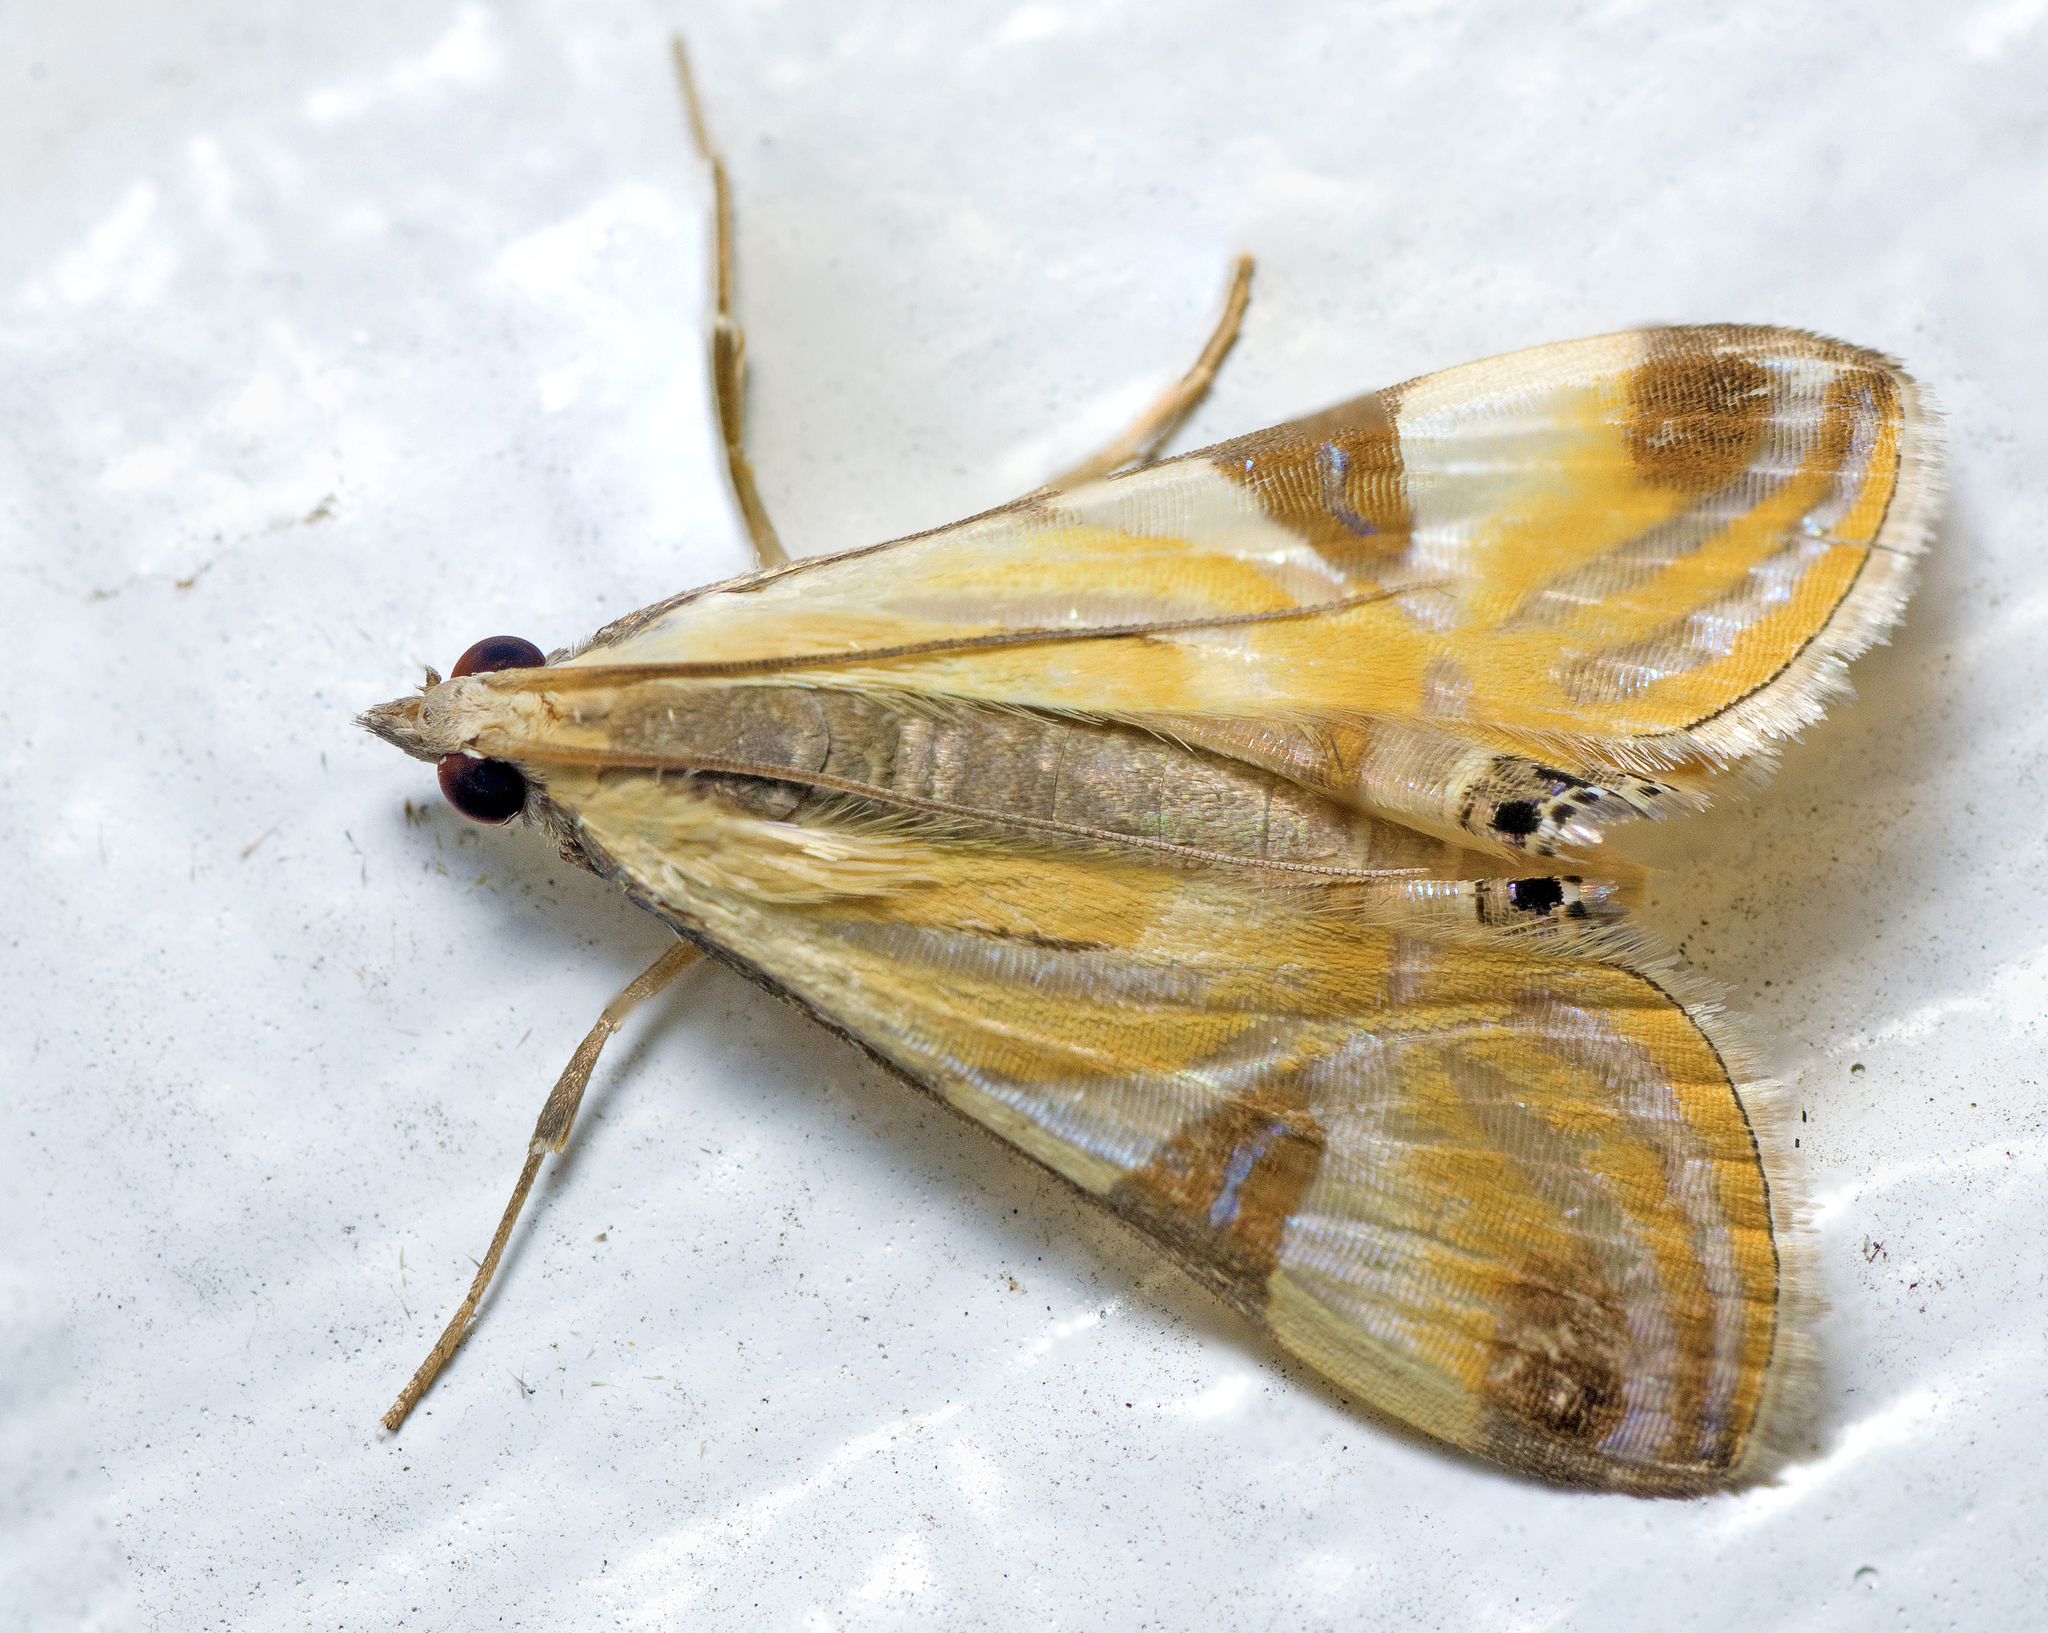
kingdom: Animalia
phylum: Arthropoda
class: Insecta
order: Lepidoptera
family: Crambidae
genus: Talanga
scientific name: Talanga tolumnialis
